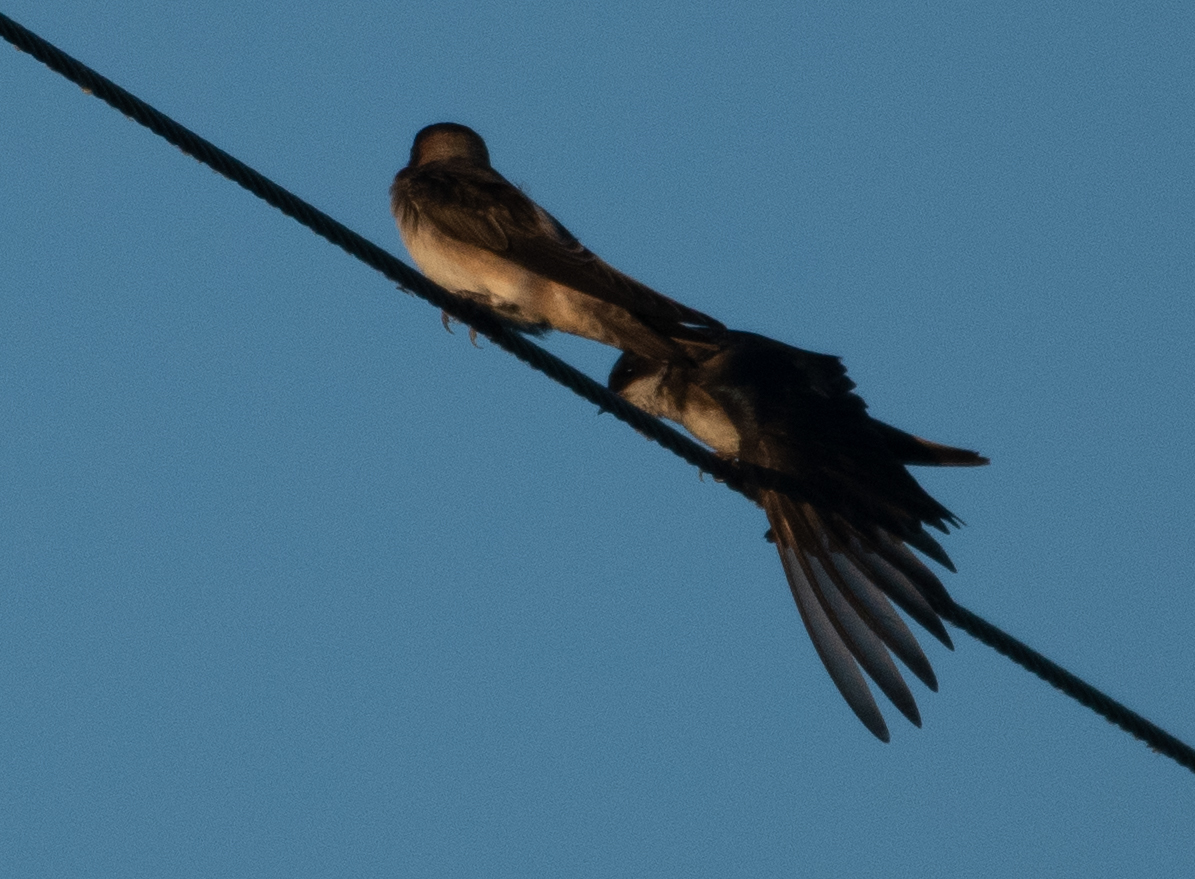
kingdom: Animalia
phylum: Chordata
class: Aves
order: Passeriformes
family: Hirundinidae
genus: Tachycineta
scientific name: Tachycineta bicolor
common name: Tree swallow
